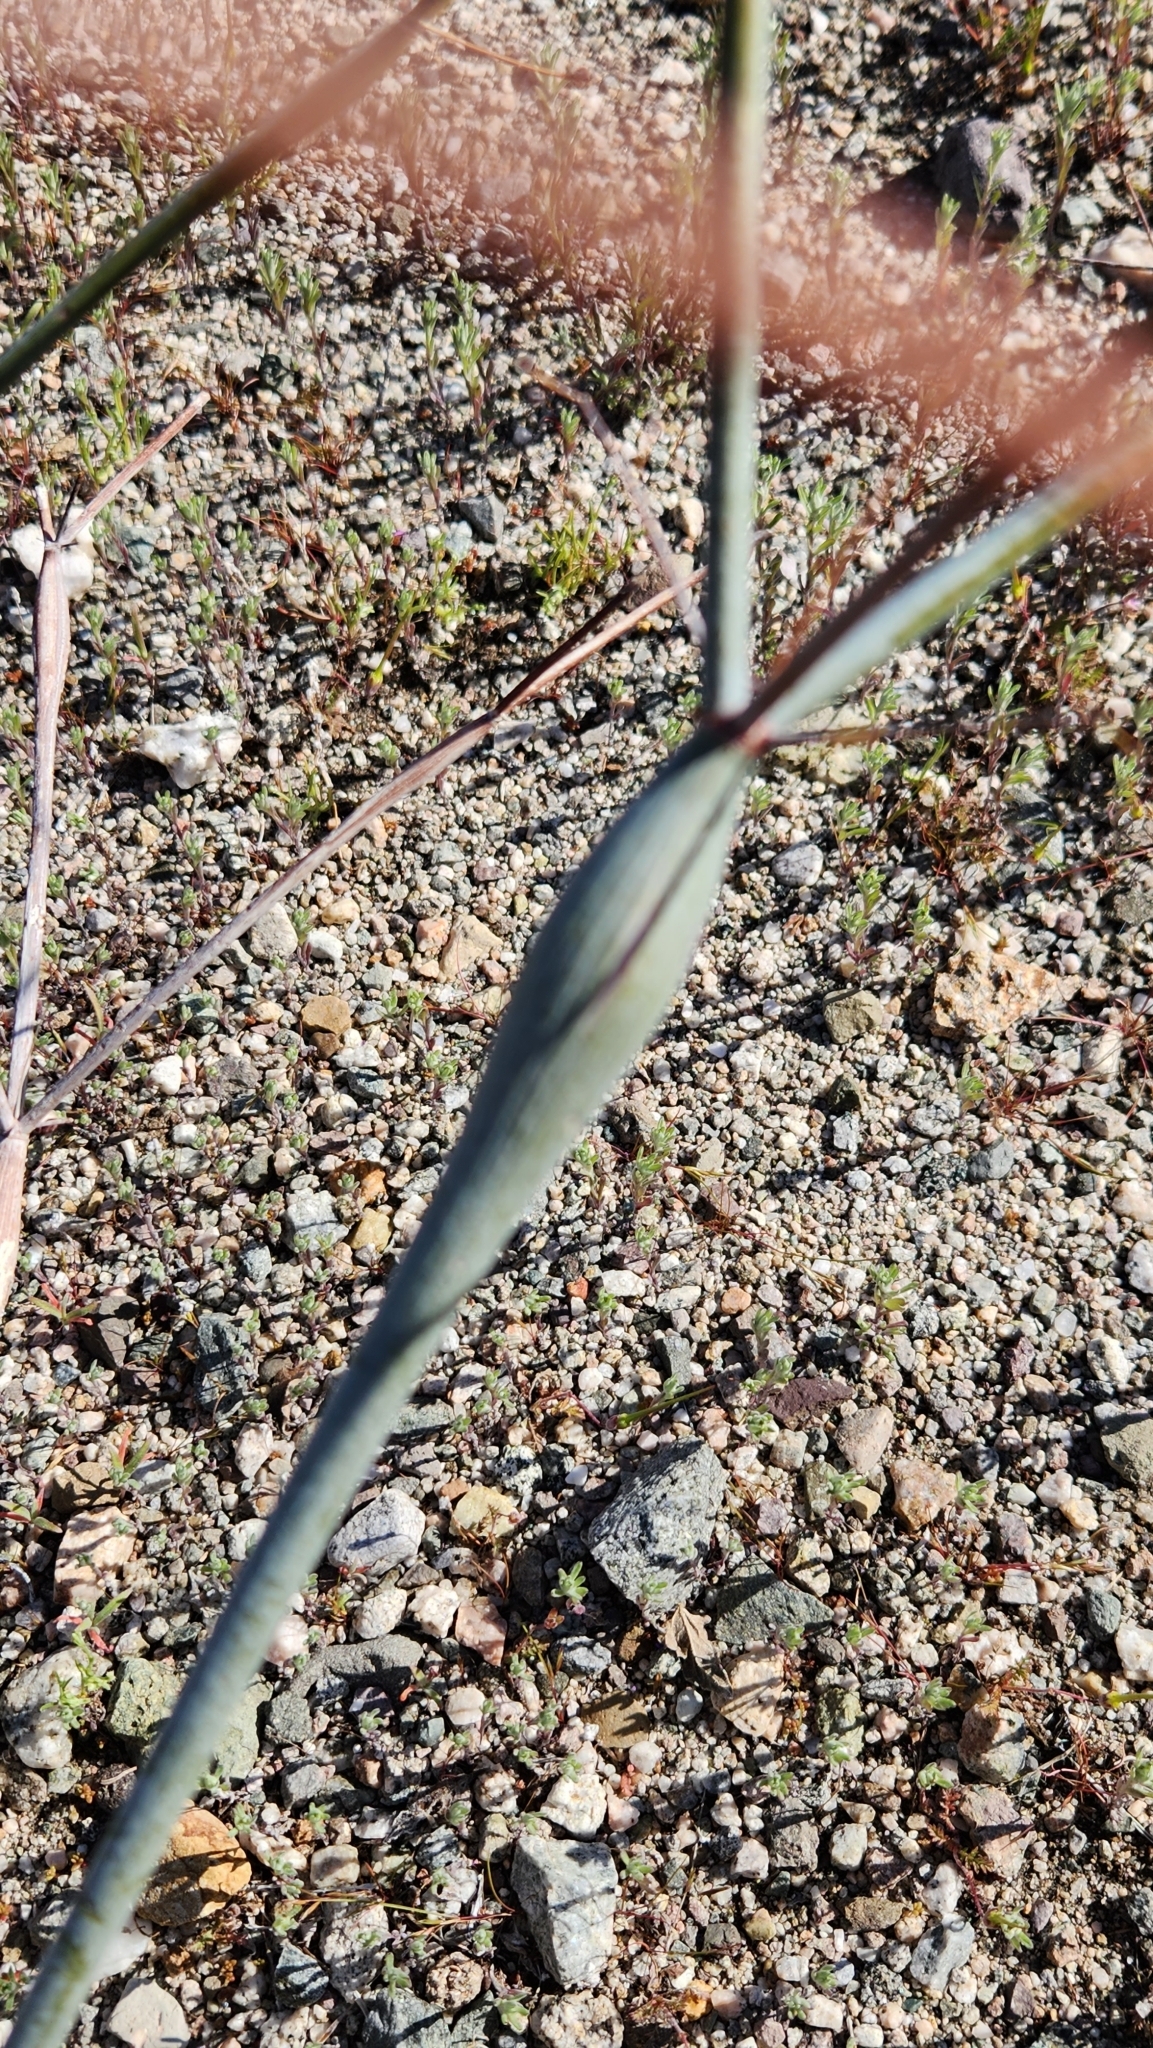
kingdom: Plantae
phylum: Tracheophyta
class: Magnoliopsida
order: Caryophyllales
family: Polygonaceae
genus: Eriogonum
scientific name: Eriogonum inflatum
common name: Desert trumpet
